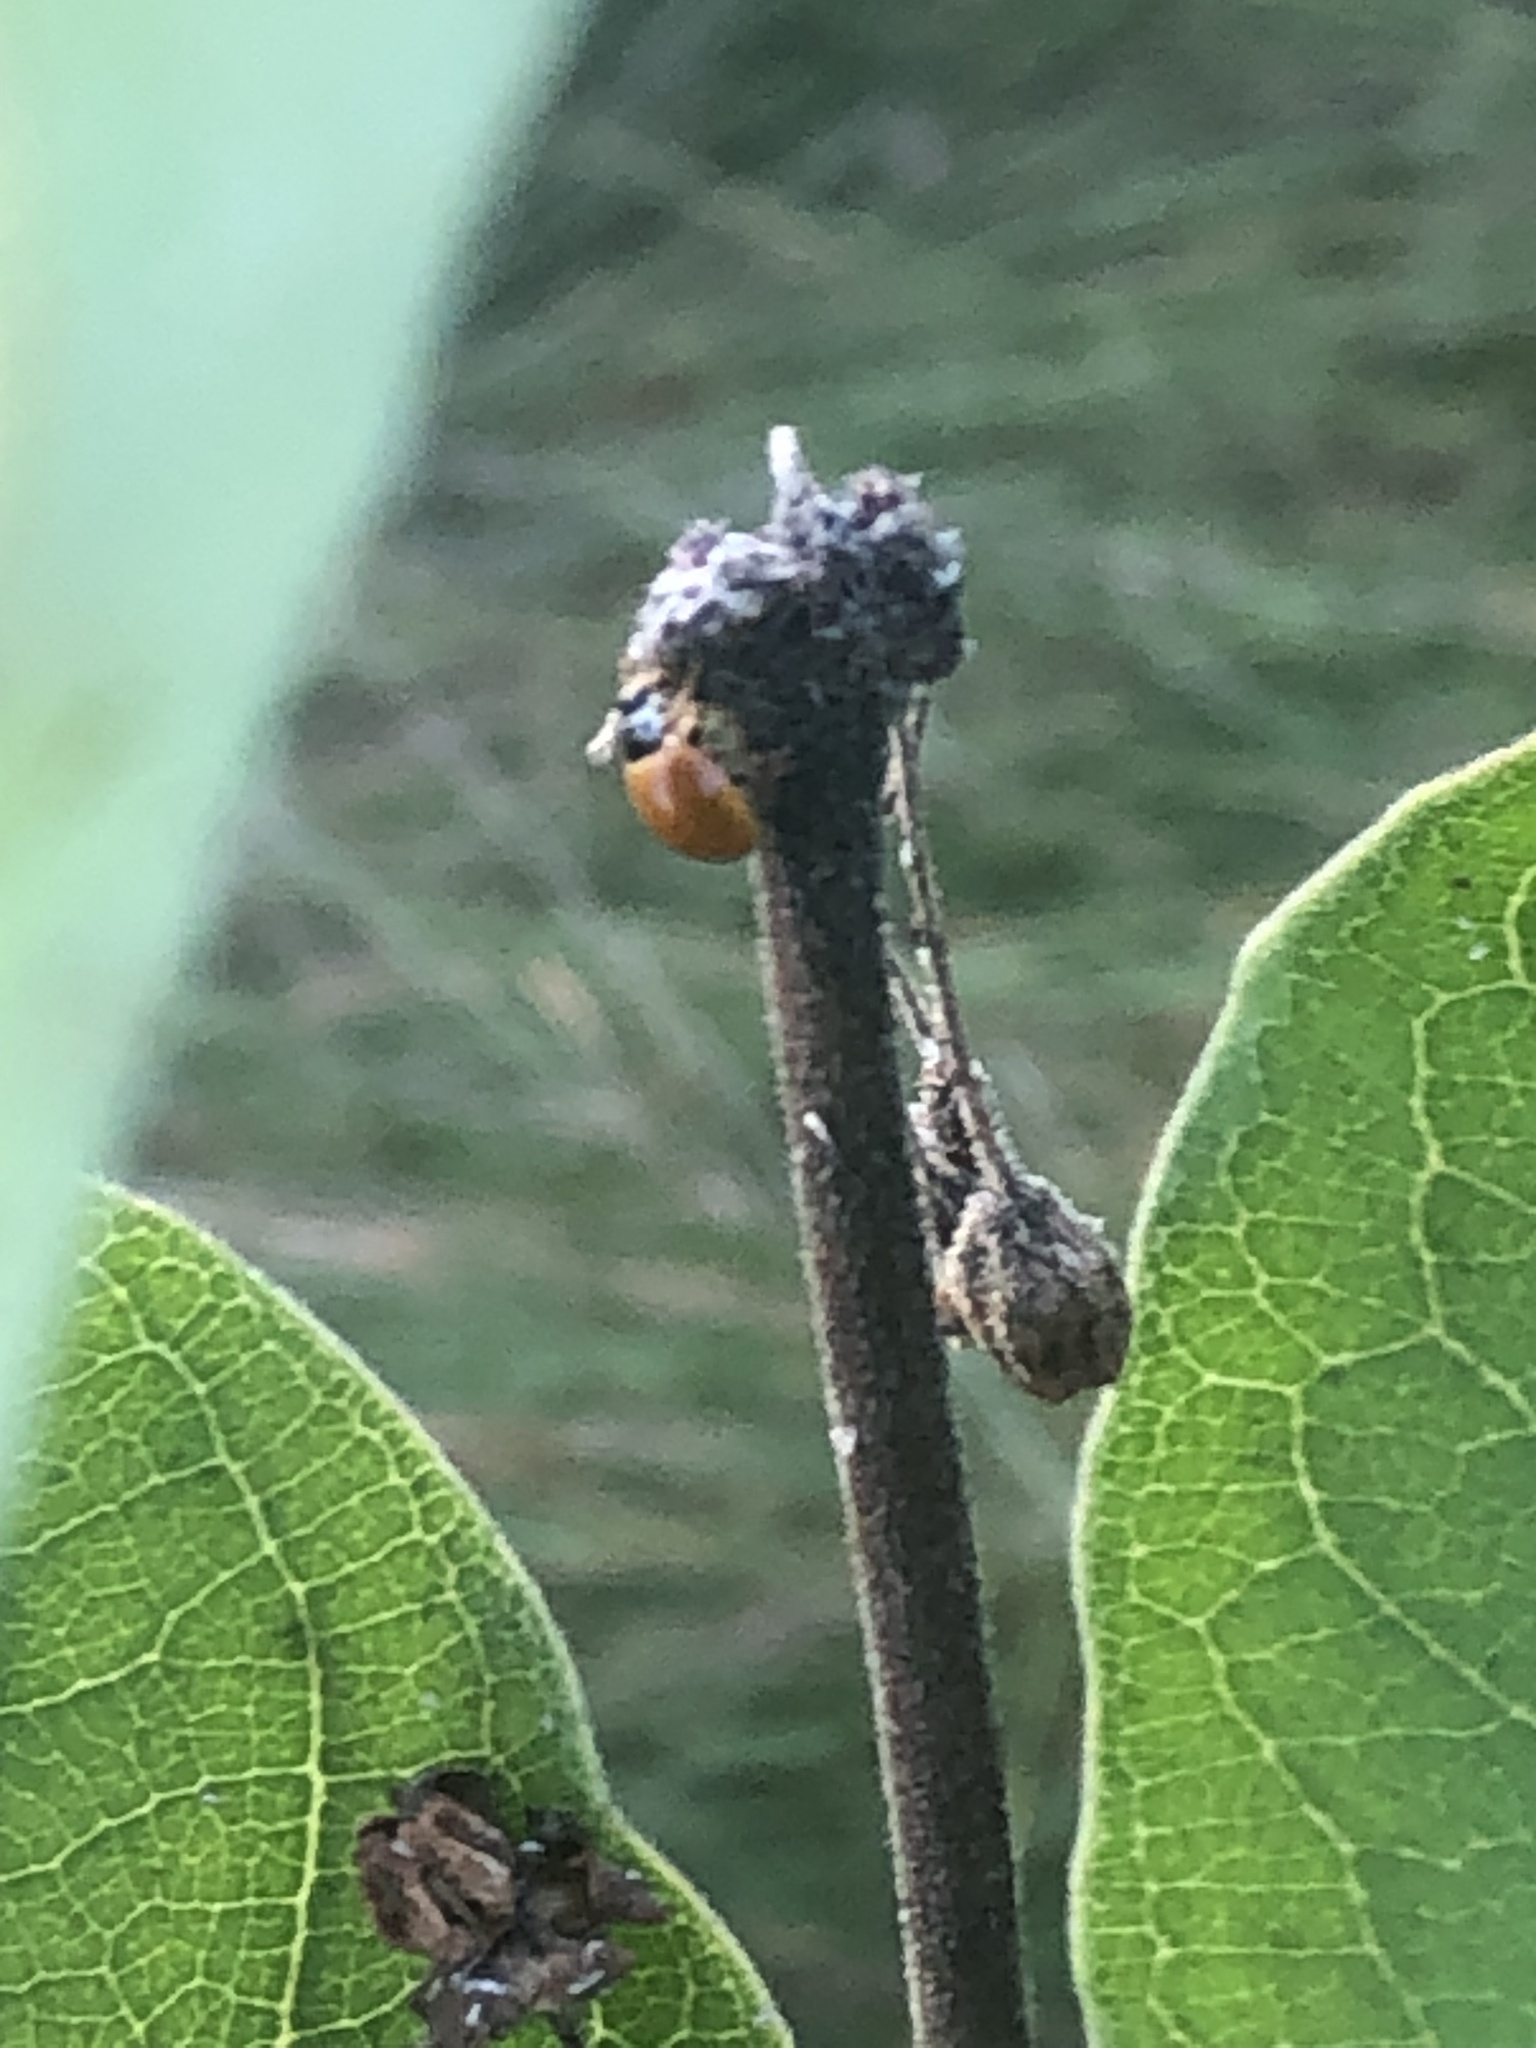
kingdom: Animalia
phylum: Arthropoda
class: Insecta
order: Coleoptera
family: Coccinellidae
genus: Cycloneda
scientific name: Cycloneda munda
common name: Polished lady beetle
